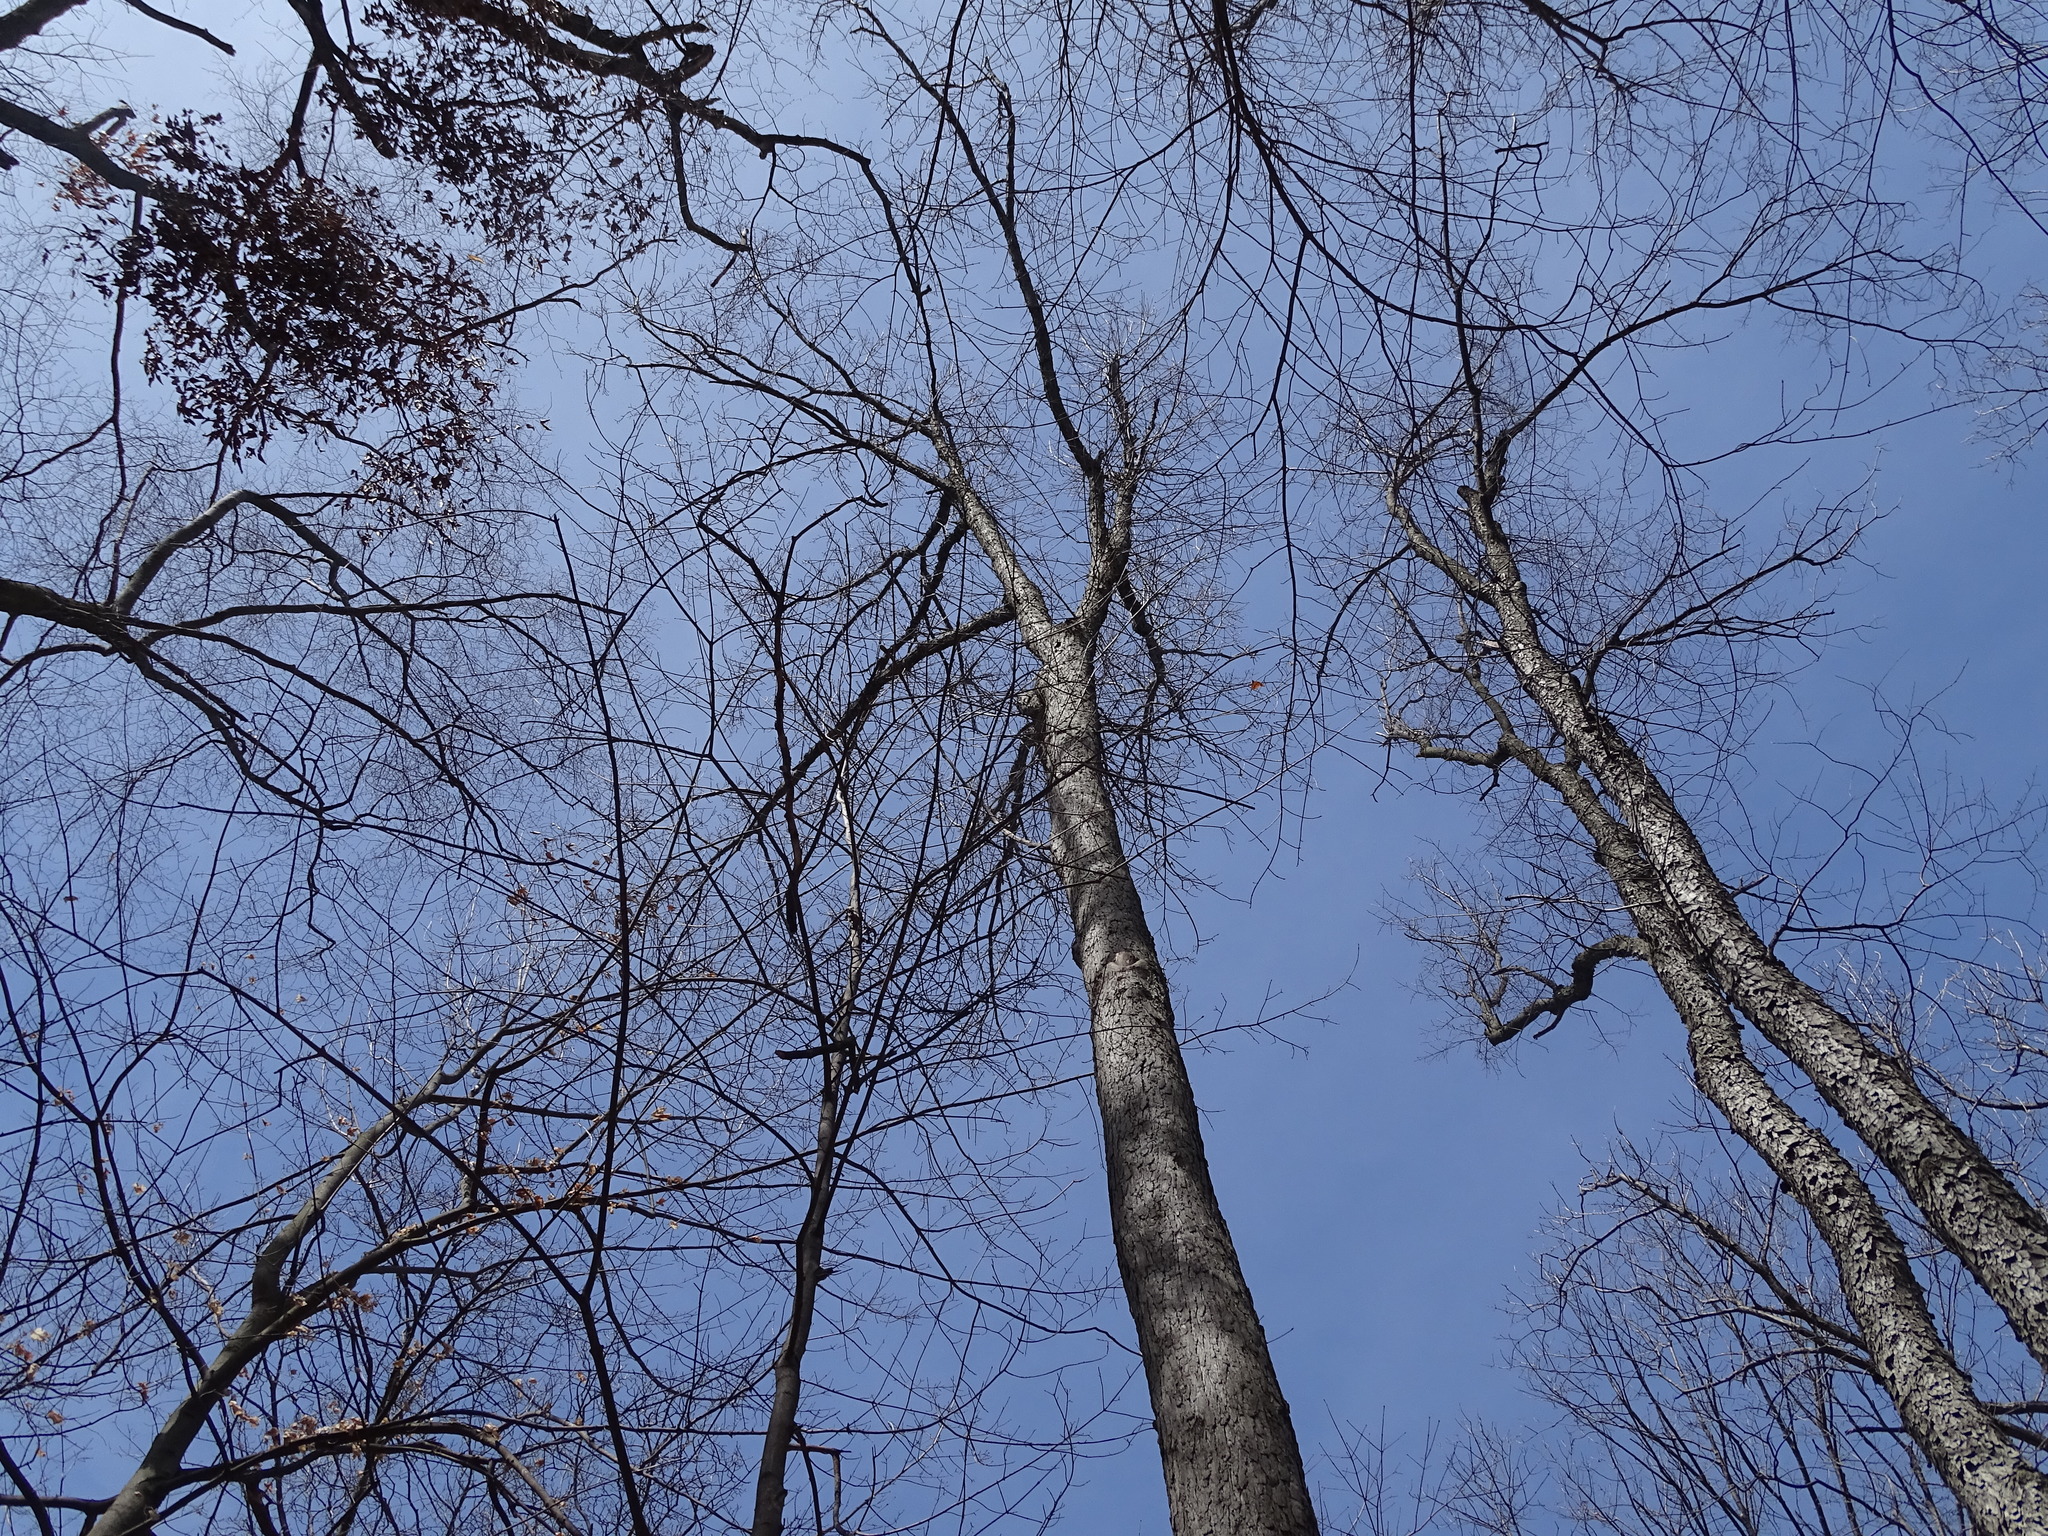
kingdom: Plantae
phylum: Tracheophyta
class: Magnoliopsida
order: Fagales
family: Fagaceae
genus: Quercus
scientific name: Quercus alba
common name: White oak
